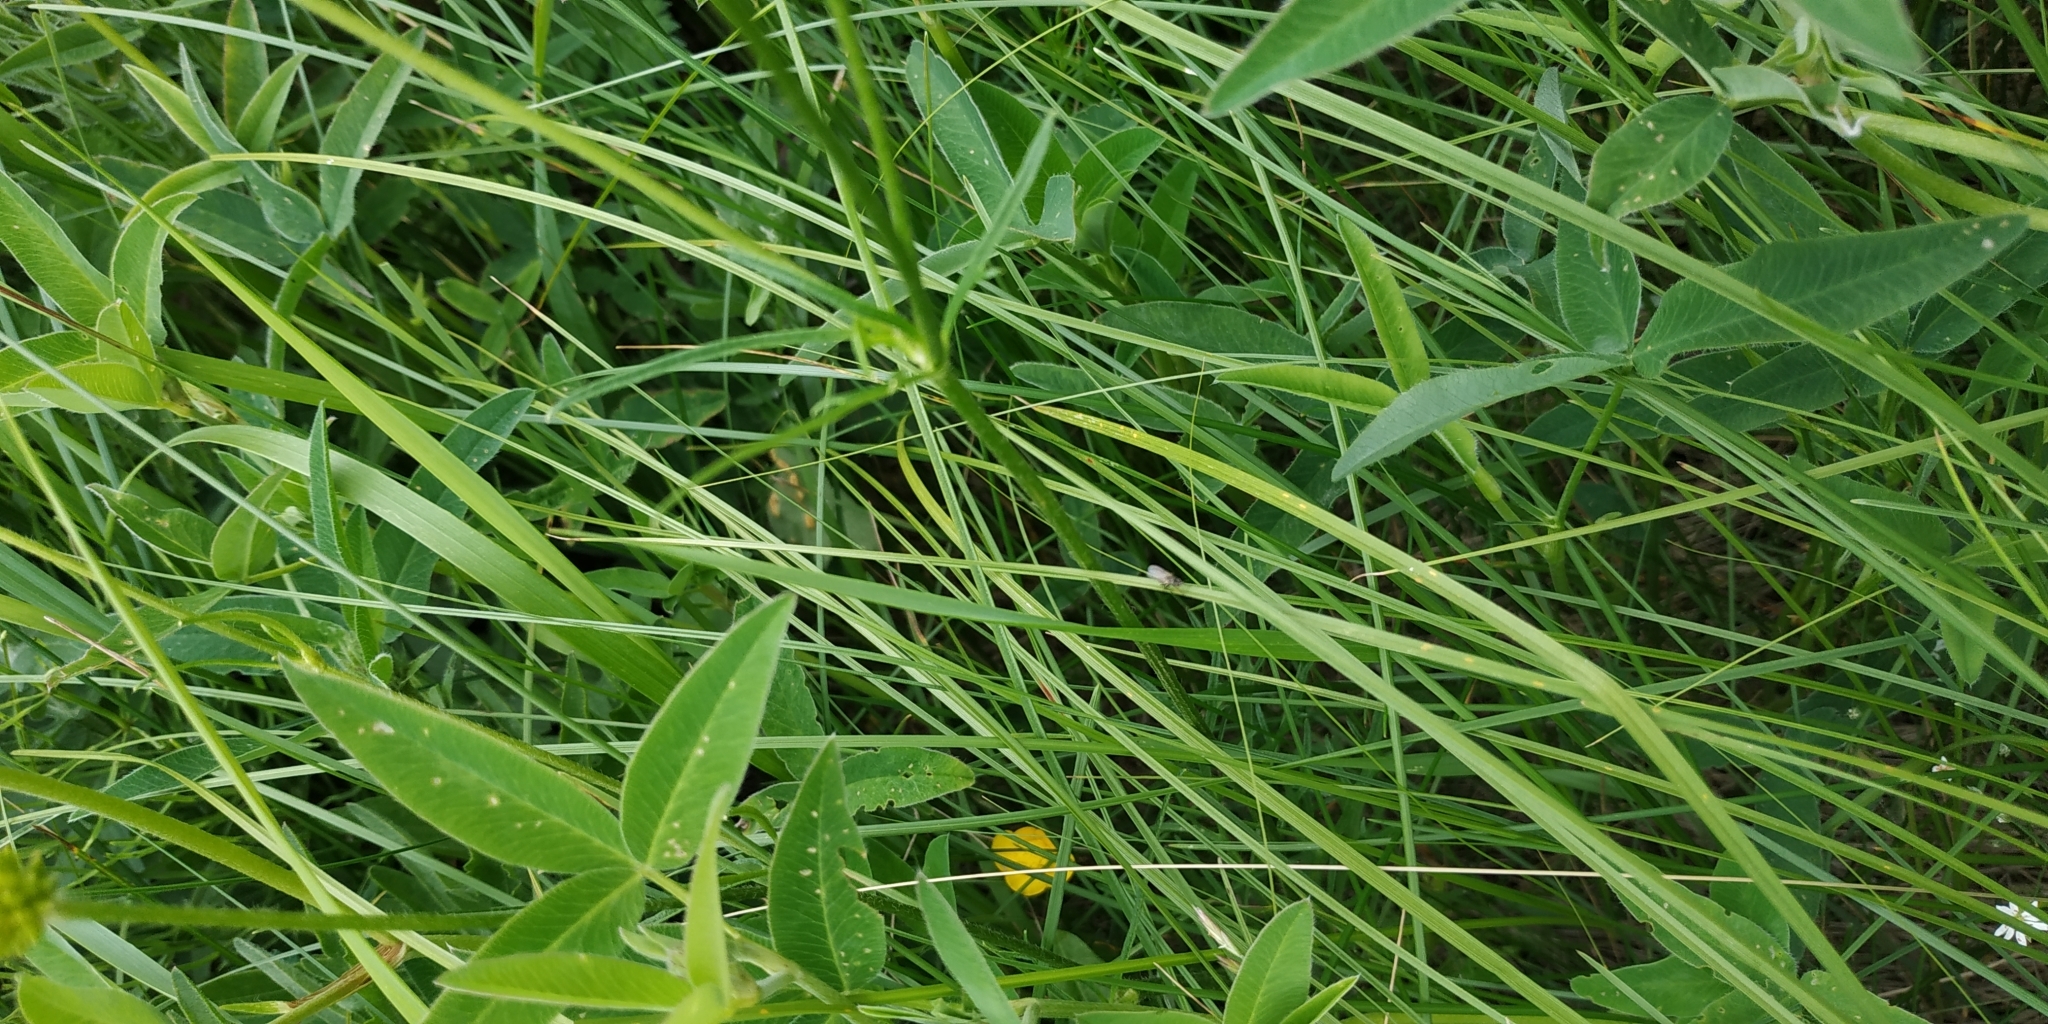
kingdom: Plantae
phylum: Tracheophyta
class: Magnoliopsida
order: Ranunculales
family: Ranunculaceae
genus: Ranunculus
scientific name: Ranunculus acris
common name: Meadow buttercup
